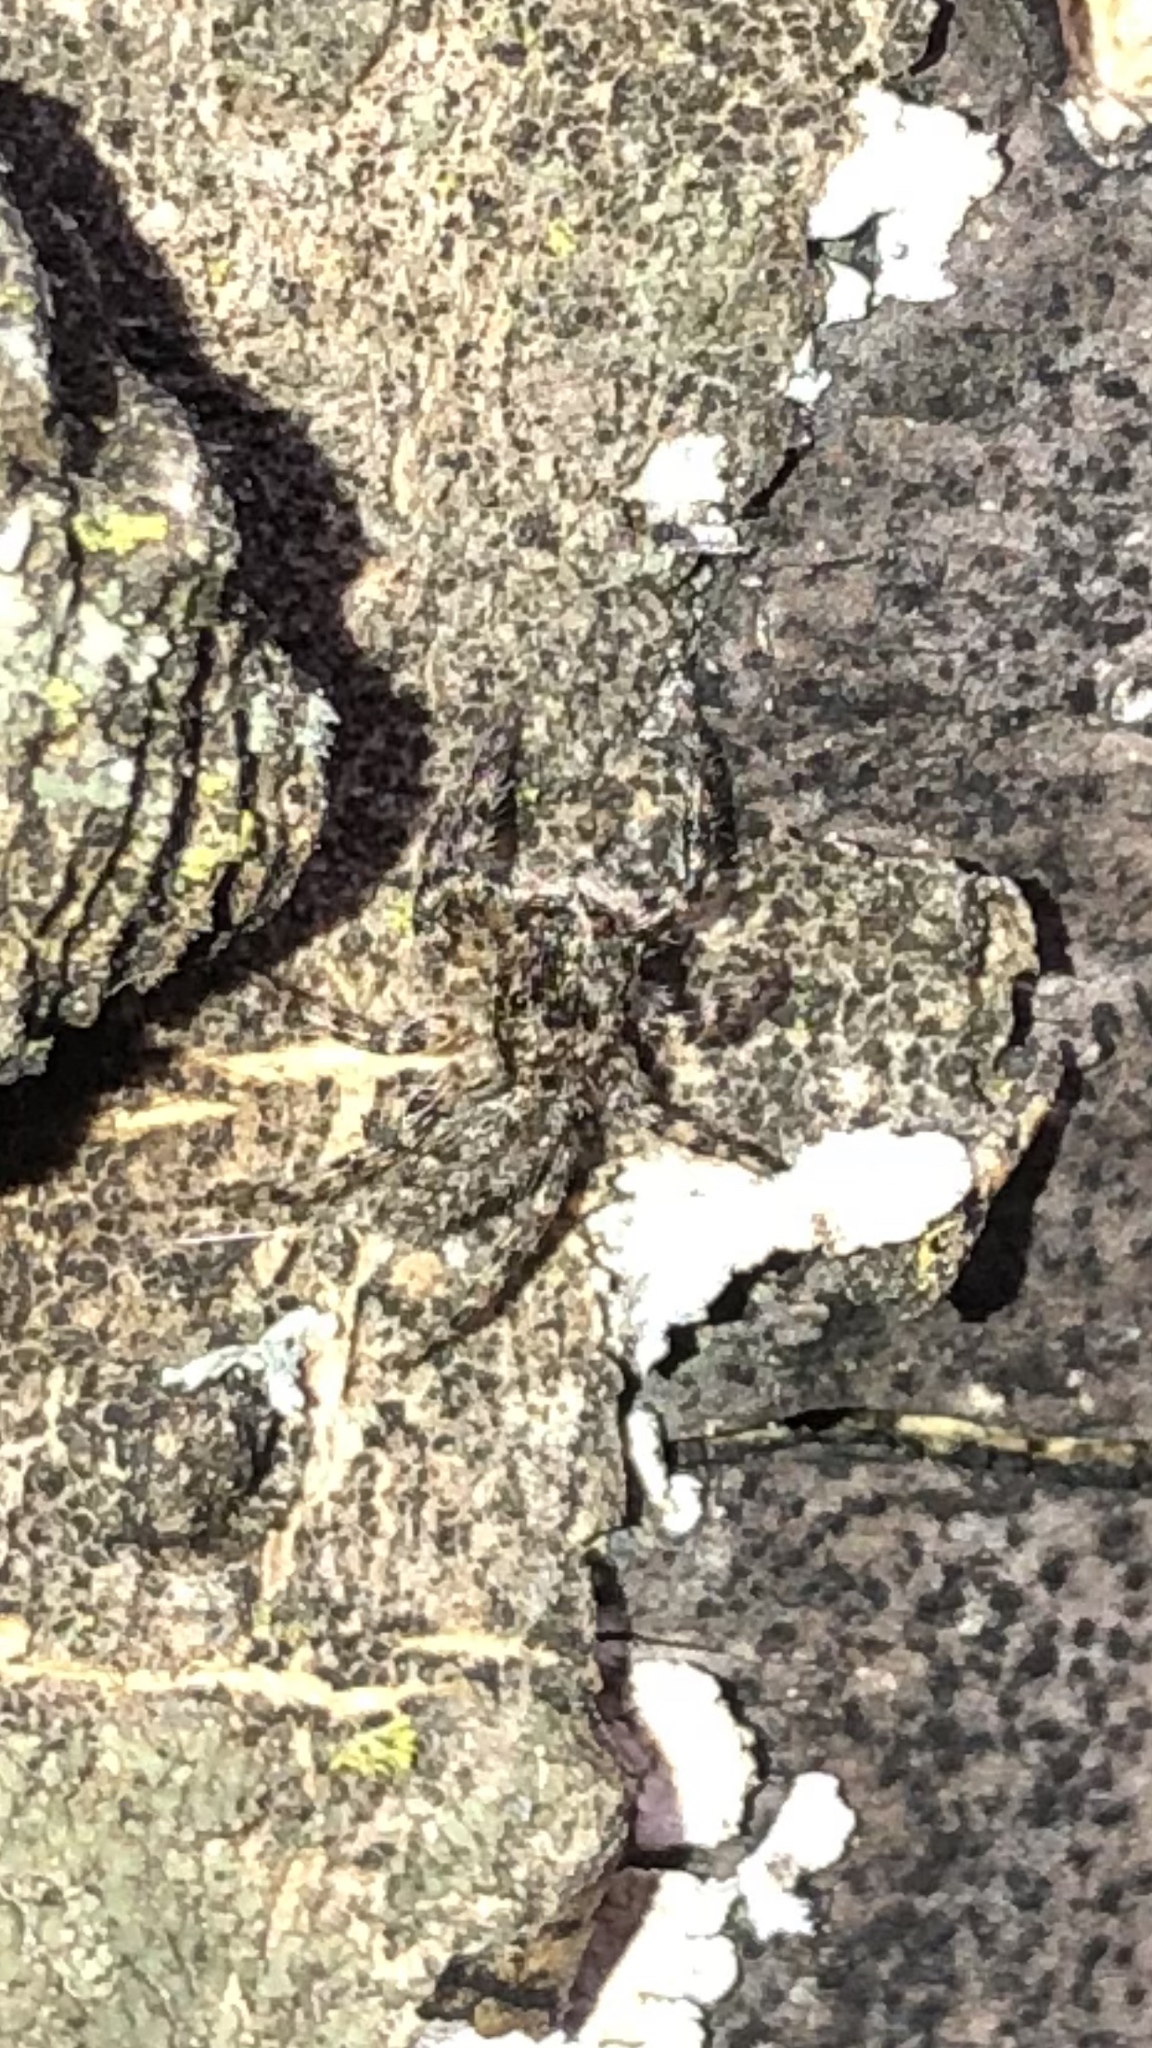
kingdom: Animalia
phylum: Arthropoda
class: Arachnida
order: Araneae
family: Salticidae
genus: Platycryptus
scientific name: Platycryptus undatus
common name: Tan jumping spider
